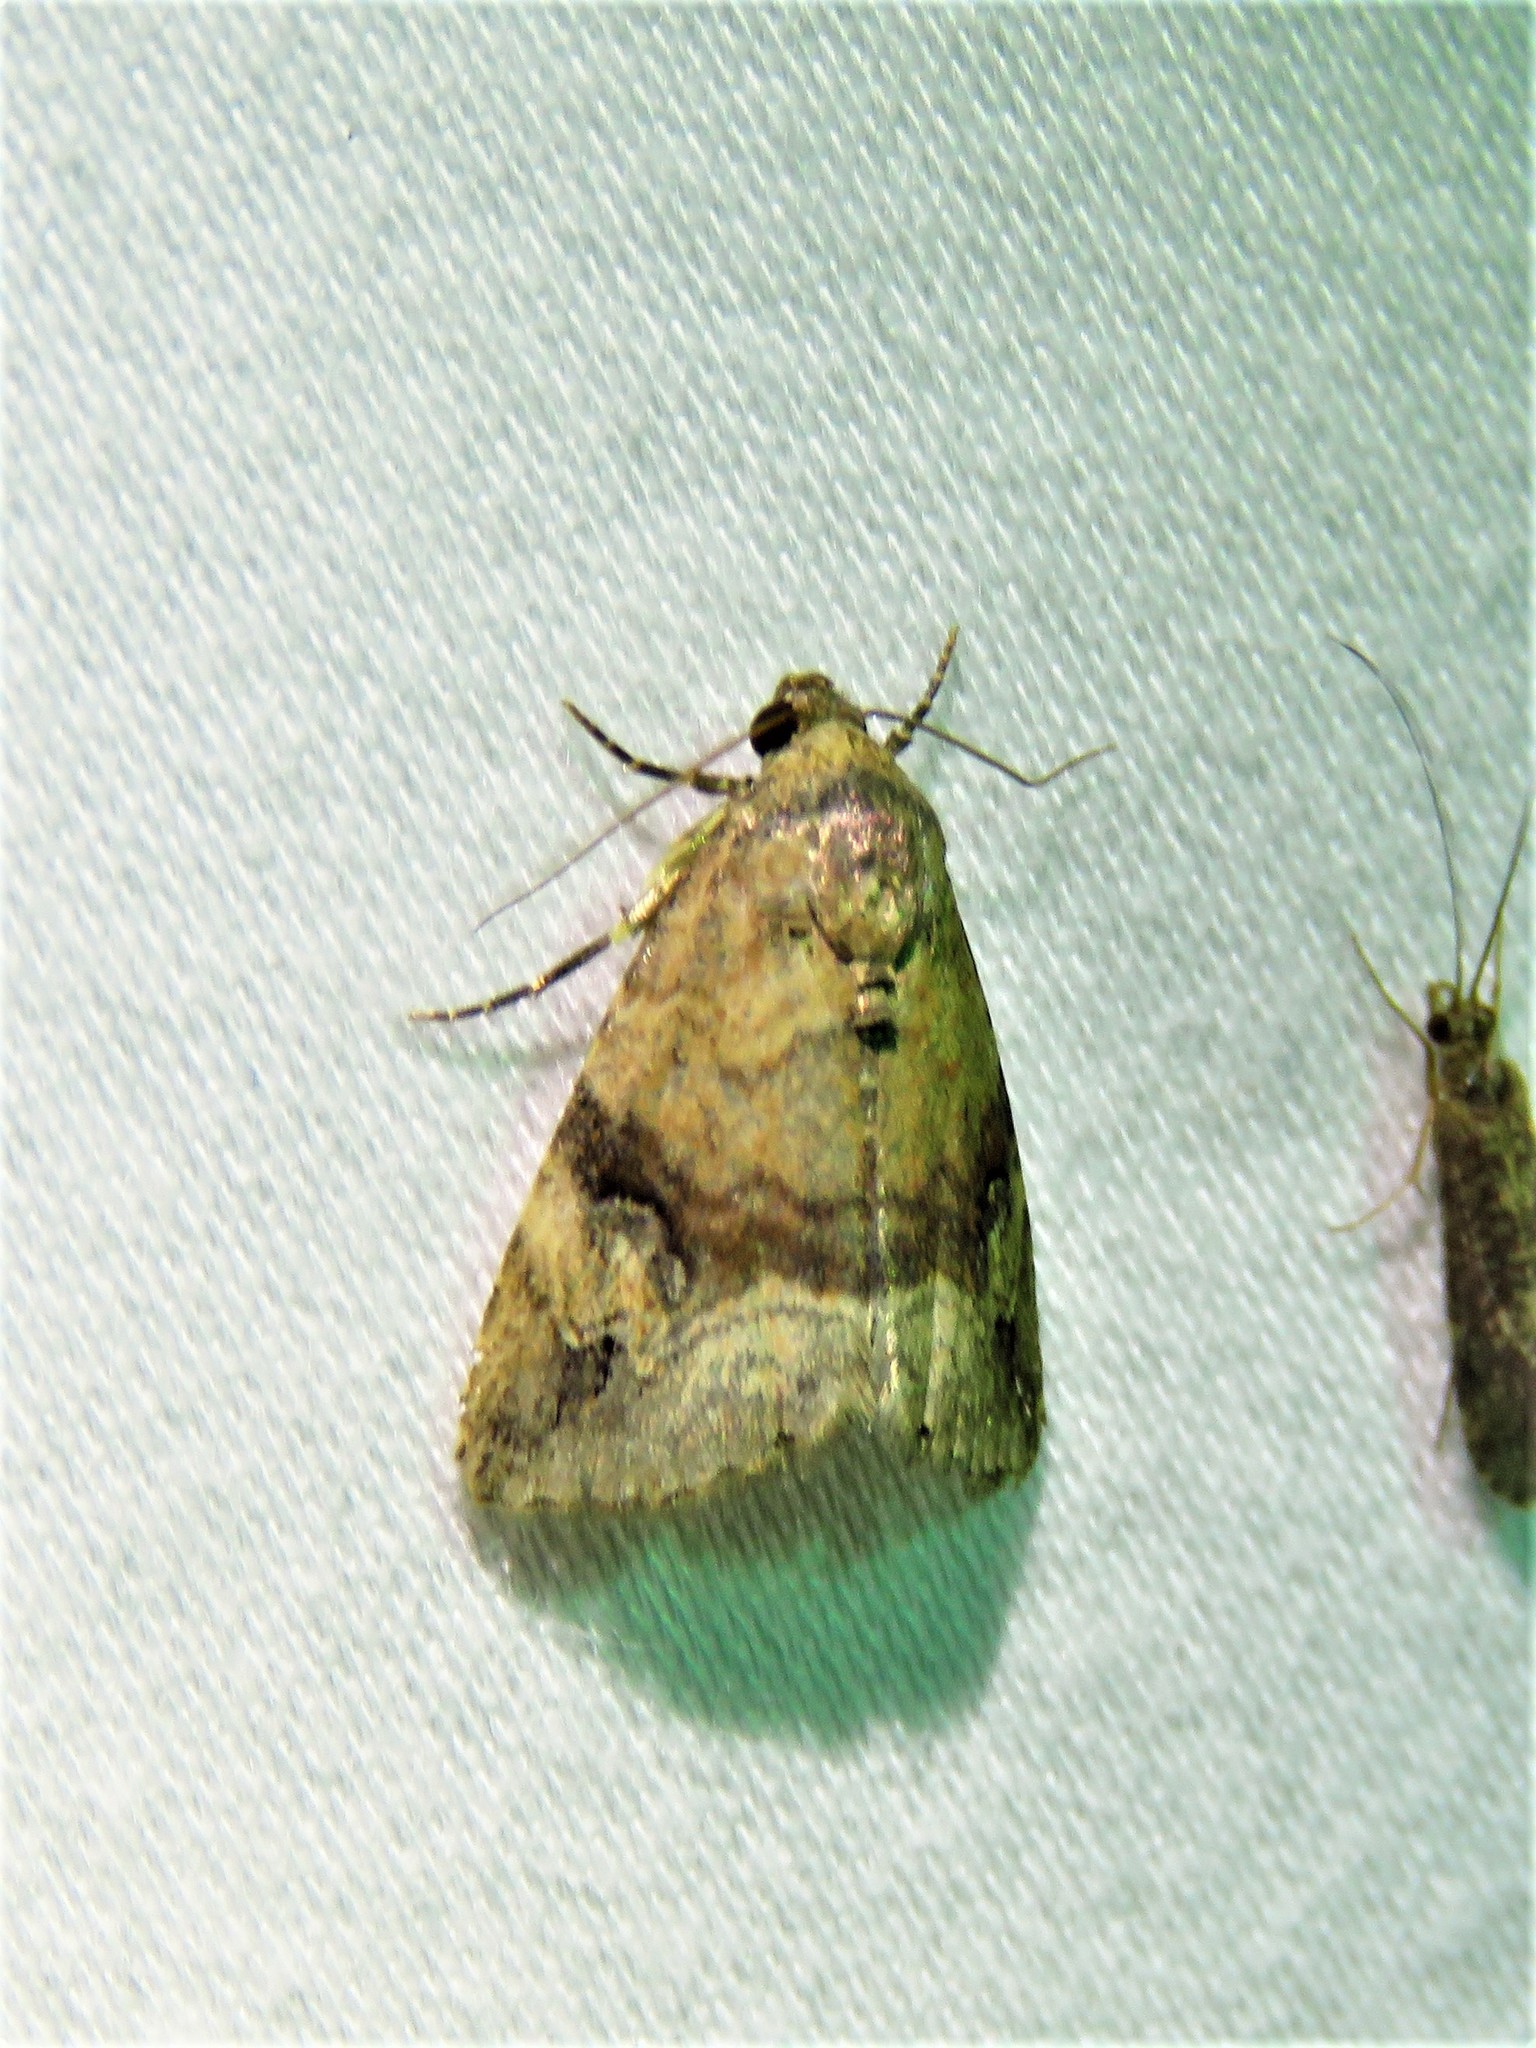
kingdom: Animalia
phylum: Arthropoda
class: Insecta
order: Lepidoptera
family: Noctuidae
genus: Ozarba
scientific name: Ozarba aeria
